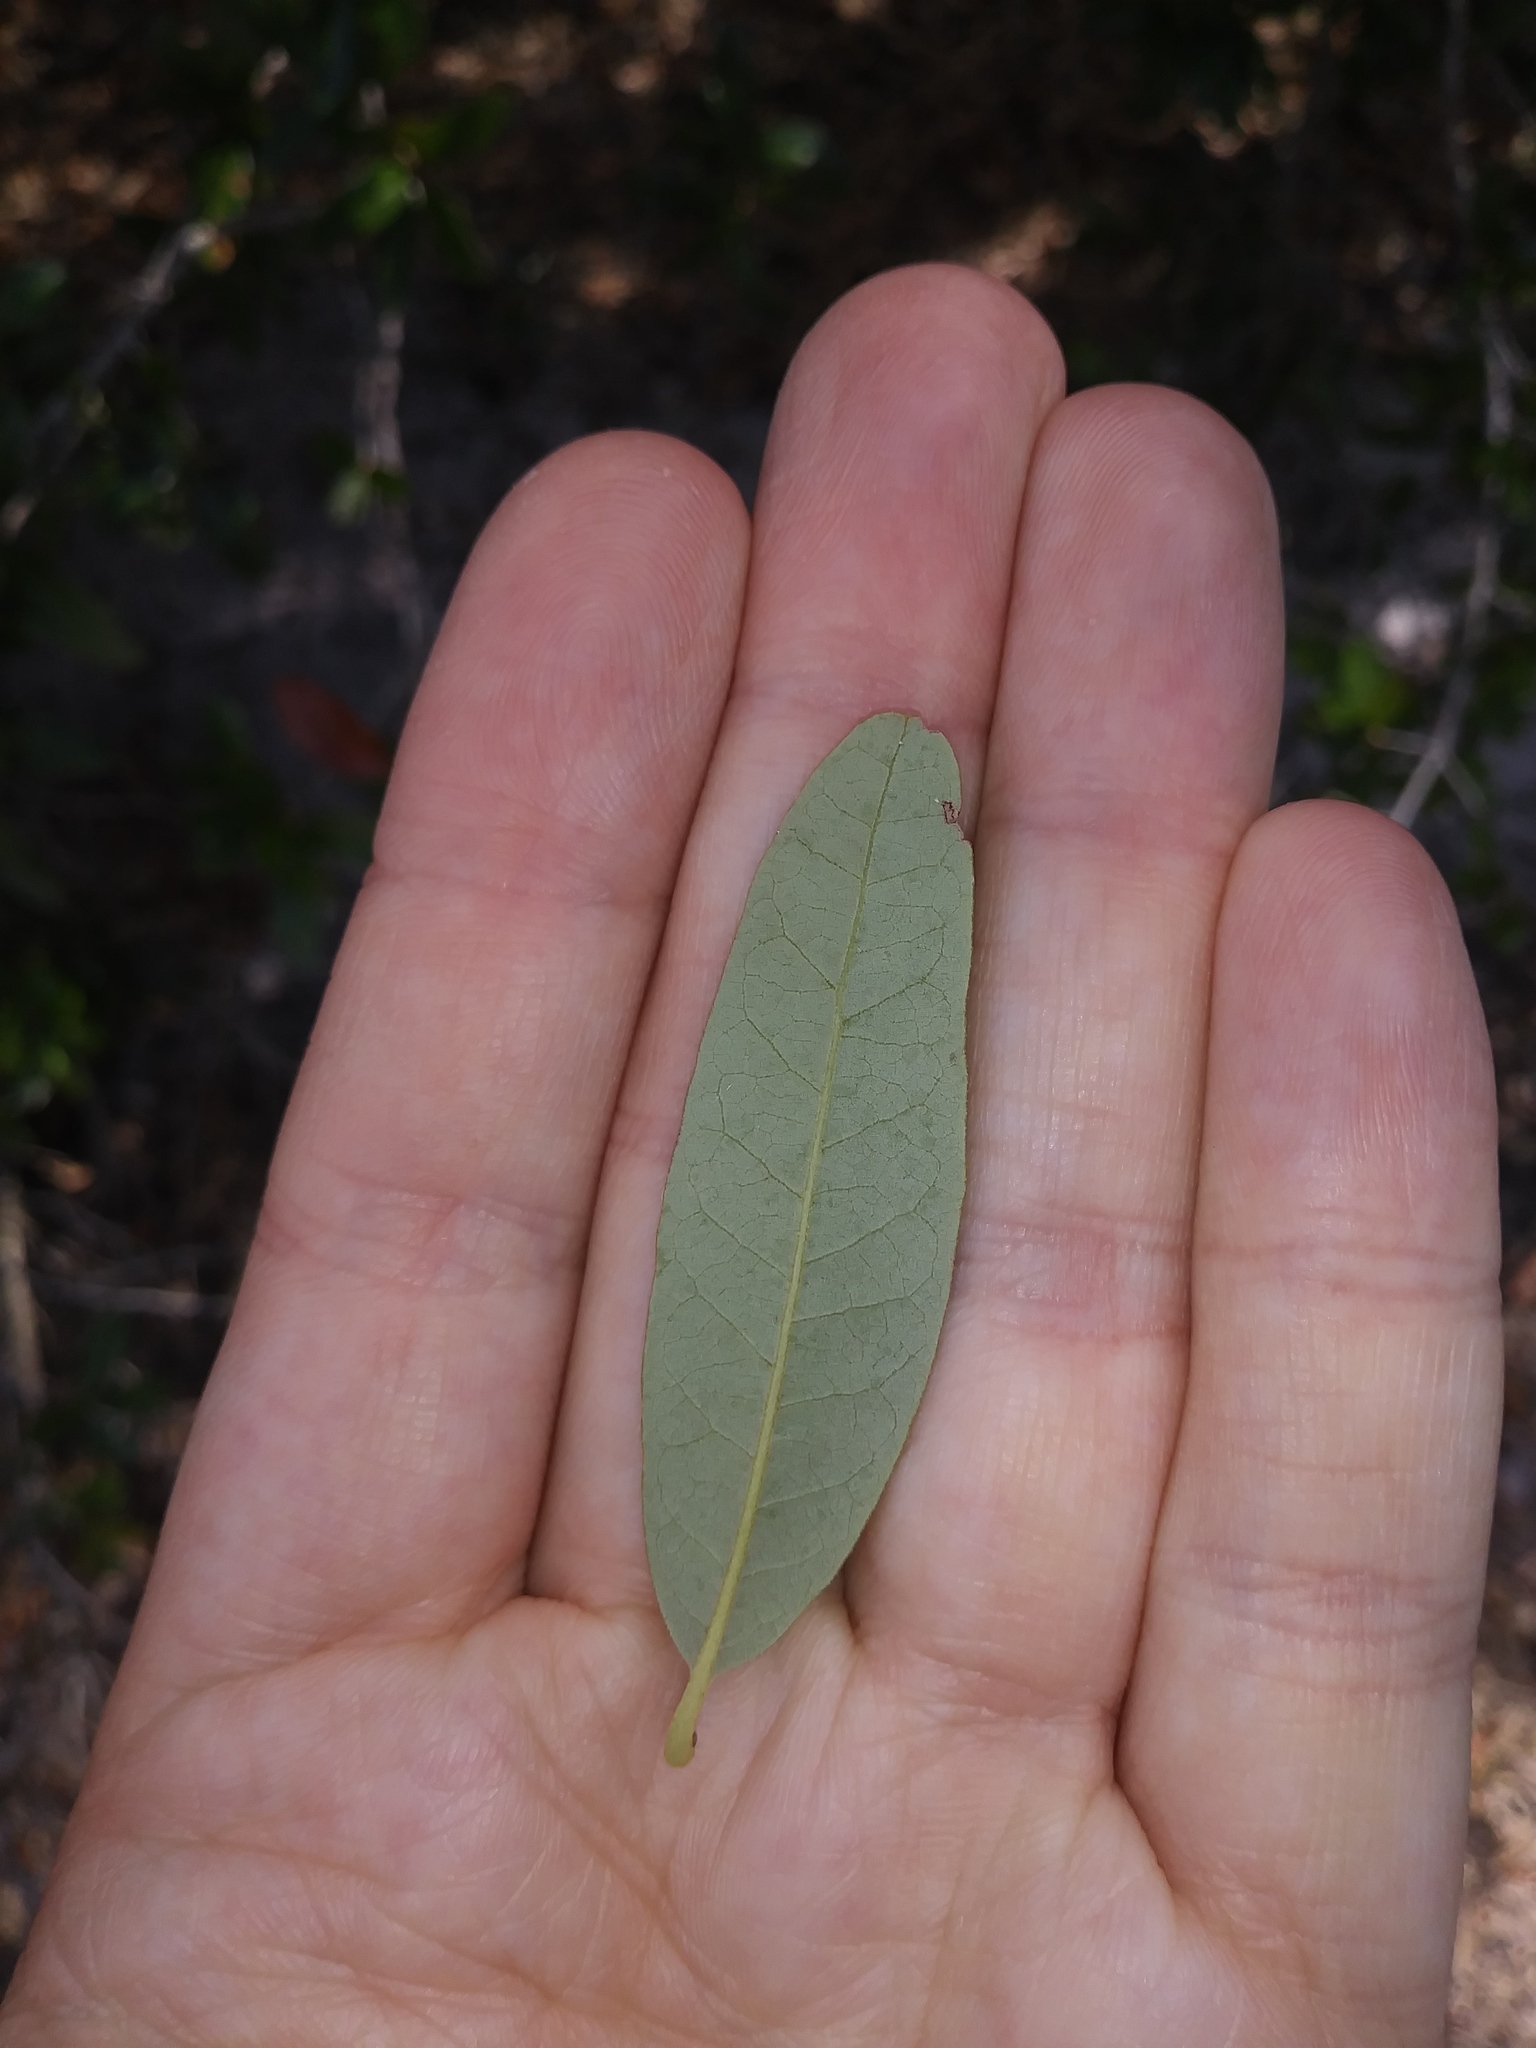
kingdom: Plantae
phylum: Tracheophyta
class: Magnoliopsida
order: Fagales
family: Fagaceae
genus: Quercus
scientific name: Quercus virginiana
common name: Southern live oak
